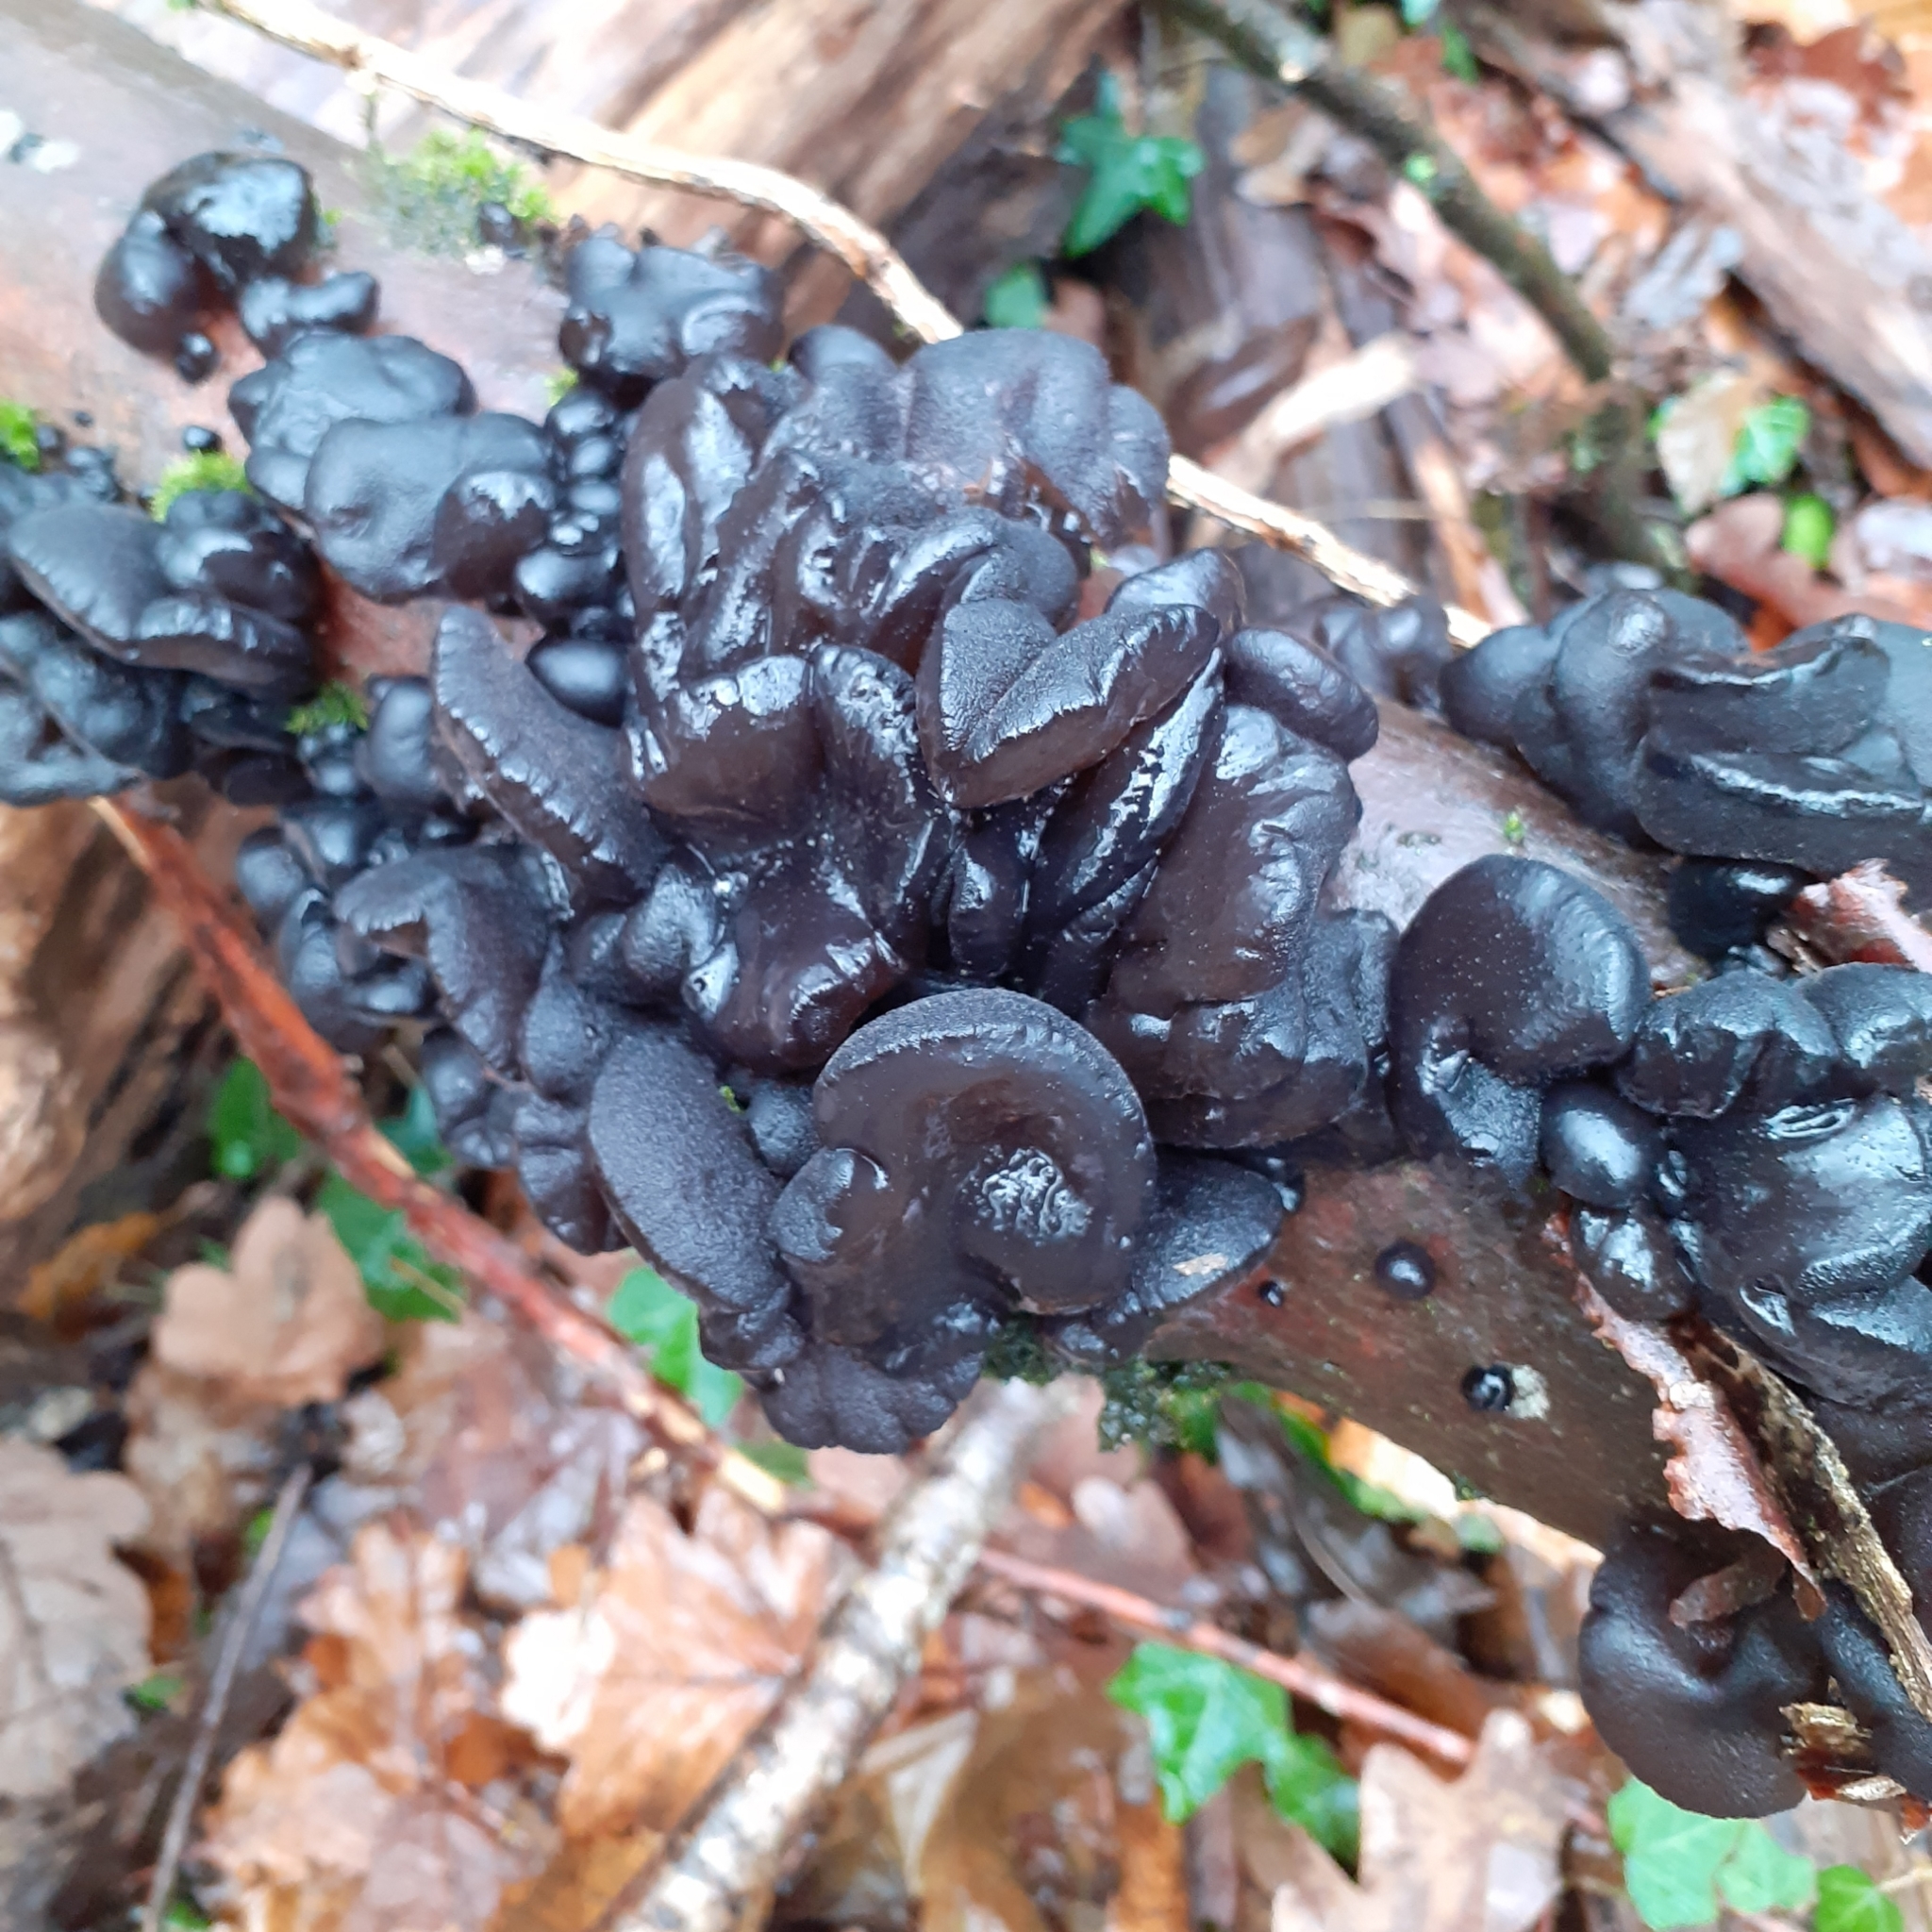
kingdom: Fungi
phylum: Basidiomycota
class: Agaricomycetes
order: Auriculariales
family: Auriculariaceae
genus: Exidia
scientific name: Exidia glandulosa
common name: Witches' butter
